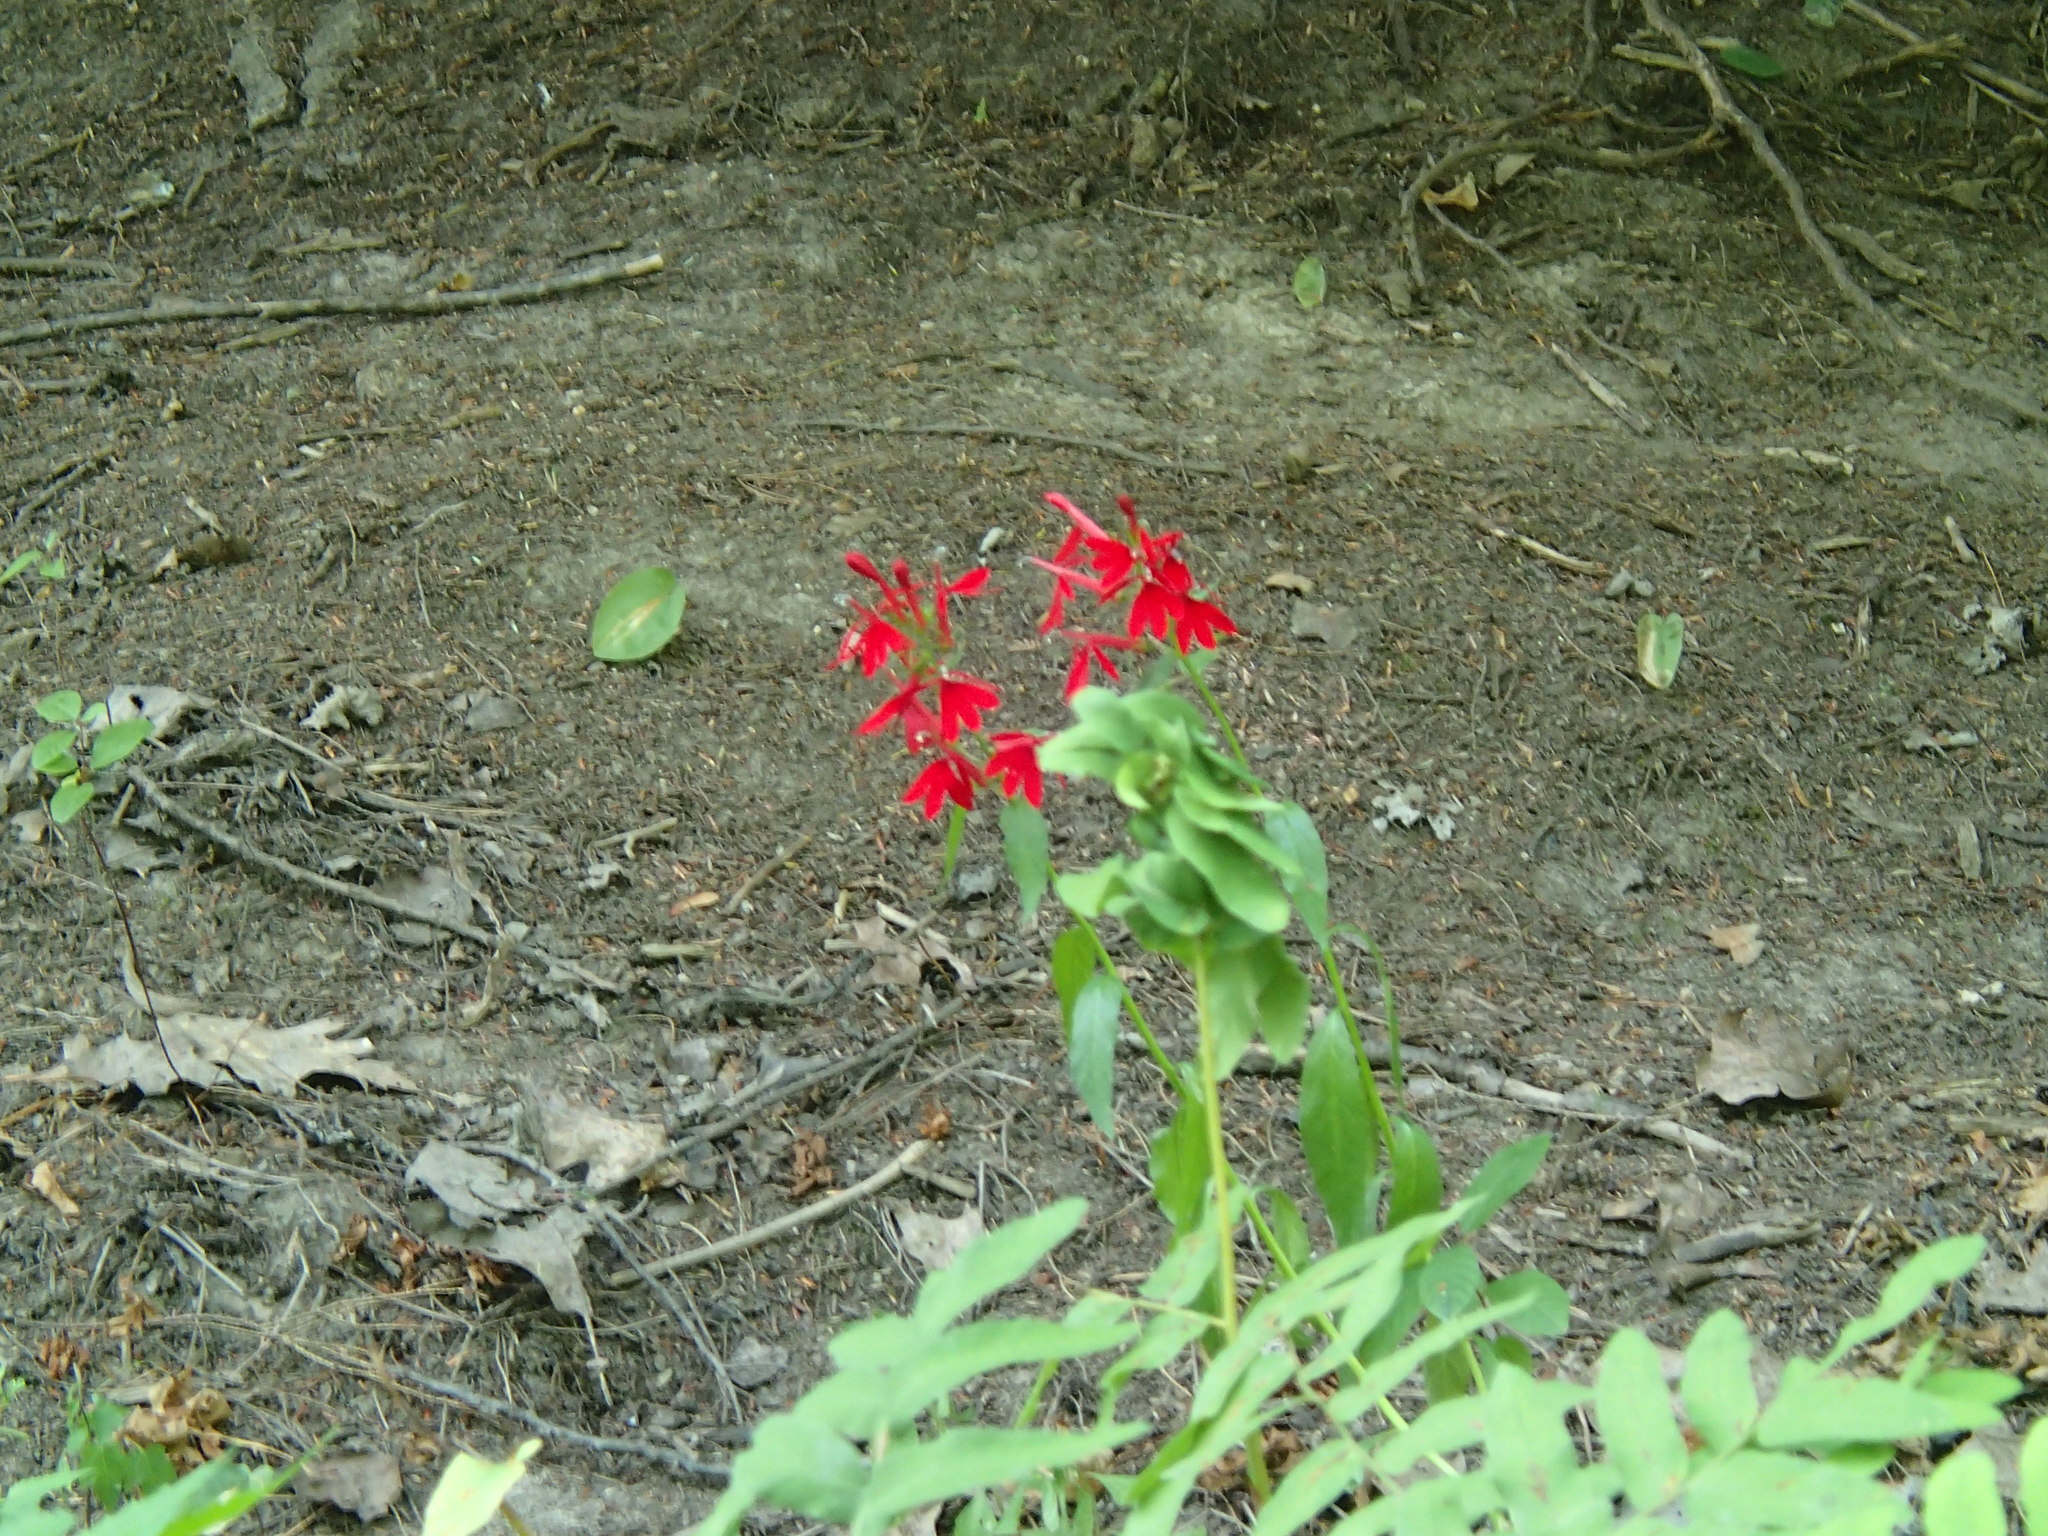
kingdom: Plantae
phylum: Tracheophyta
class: Magnoliopsida
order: Asterales
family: Campanulaceae
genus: Lobelia
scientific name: Lobelia cardinalis
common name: Cardinal flower
